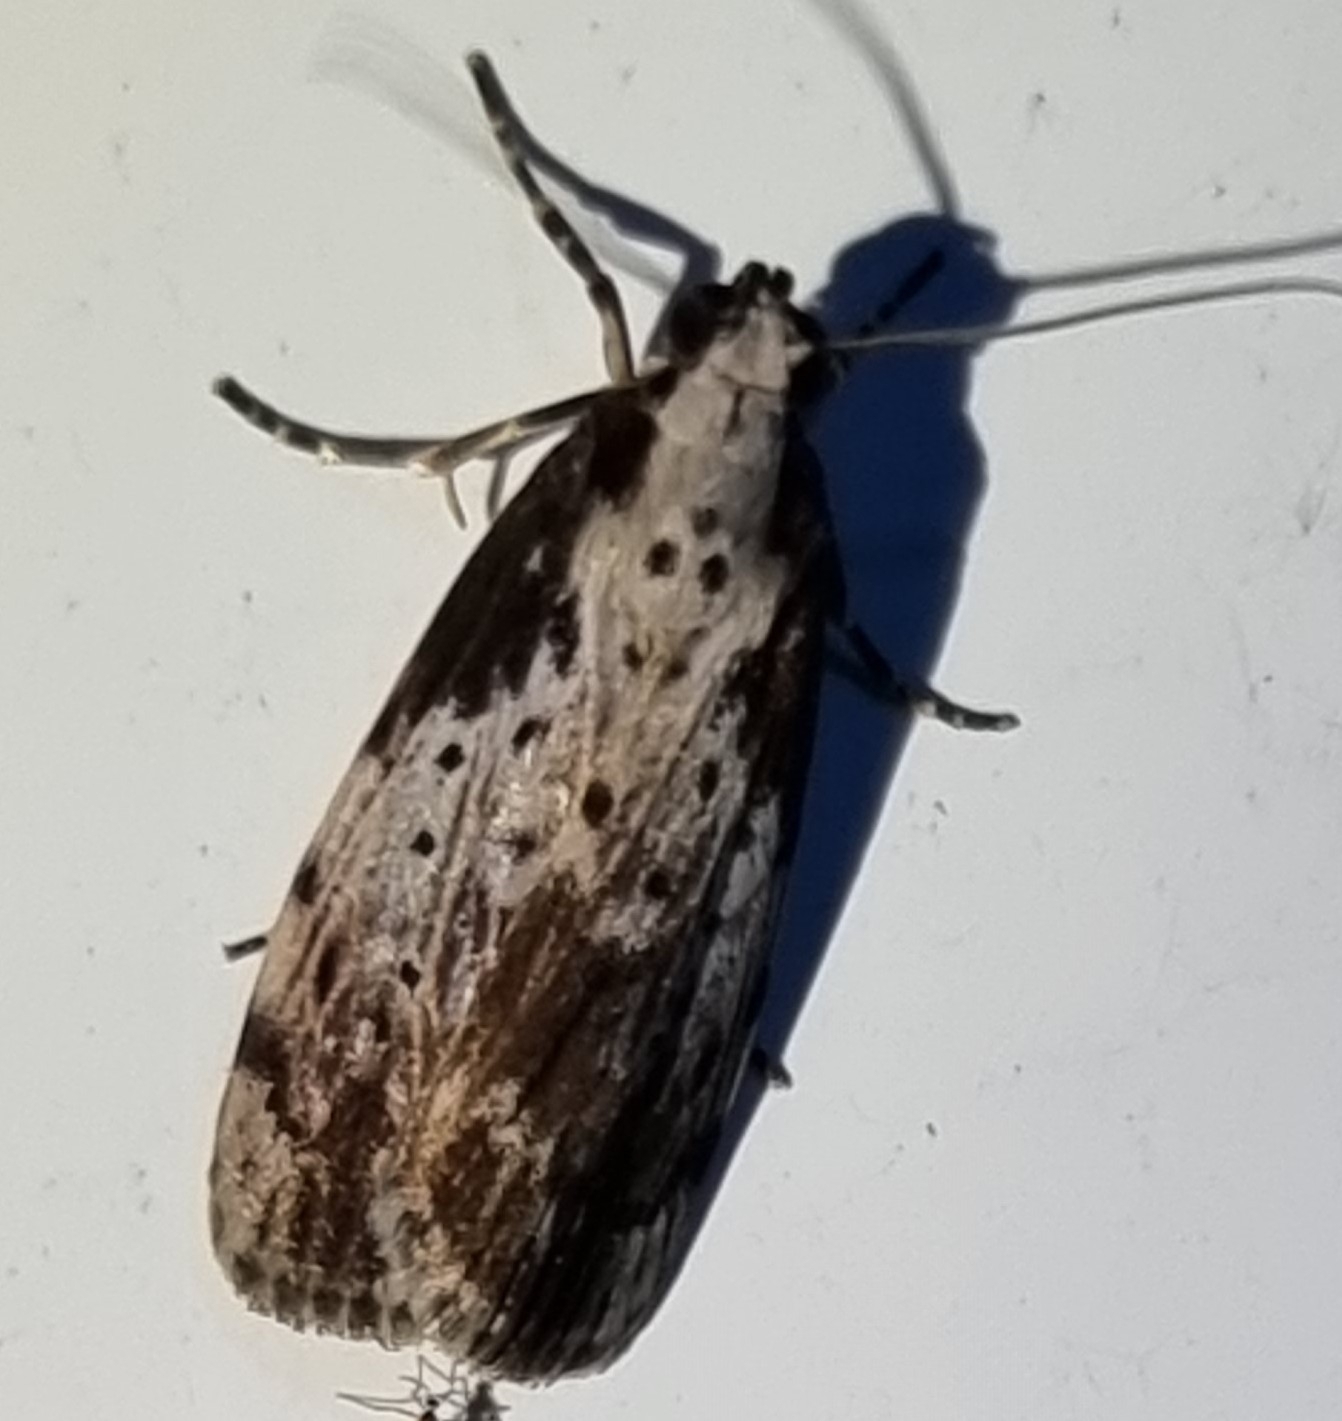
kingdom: Animalia
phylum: Arthropoda
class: Insecta
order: Lepidoptera
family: Erebidae
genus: Digama
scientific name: Digama Sommeria marmorea
